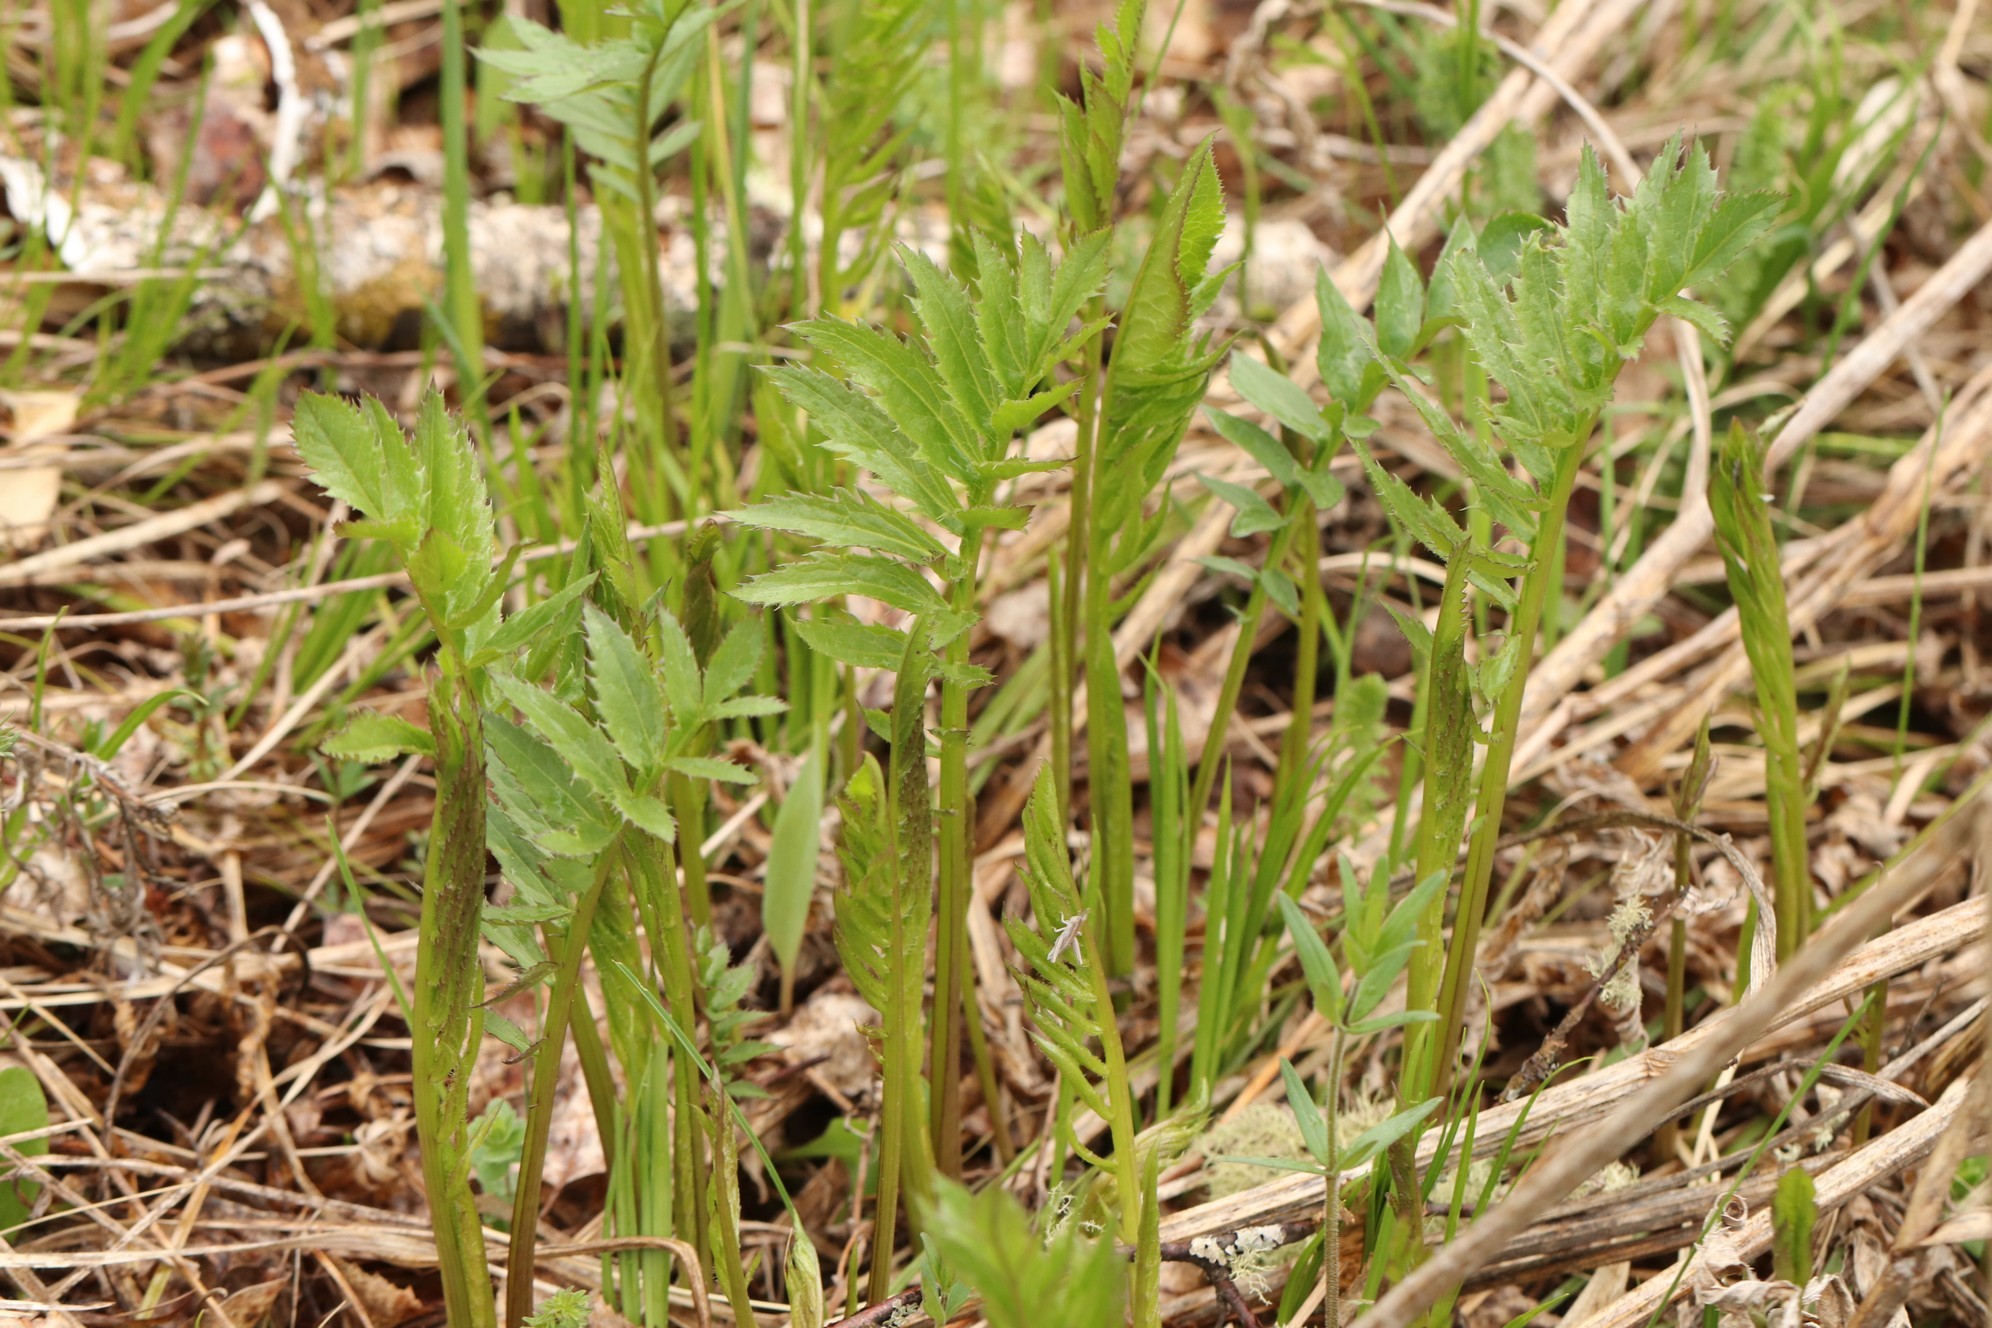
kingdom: Plantae
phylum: Tracheophyta
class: Magnoliopsida
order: Asterales
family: Asteraceae
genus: Serratula
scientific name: Serratula coronata
